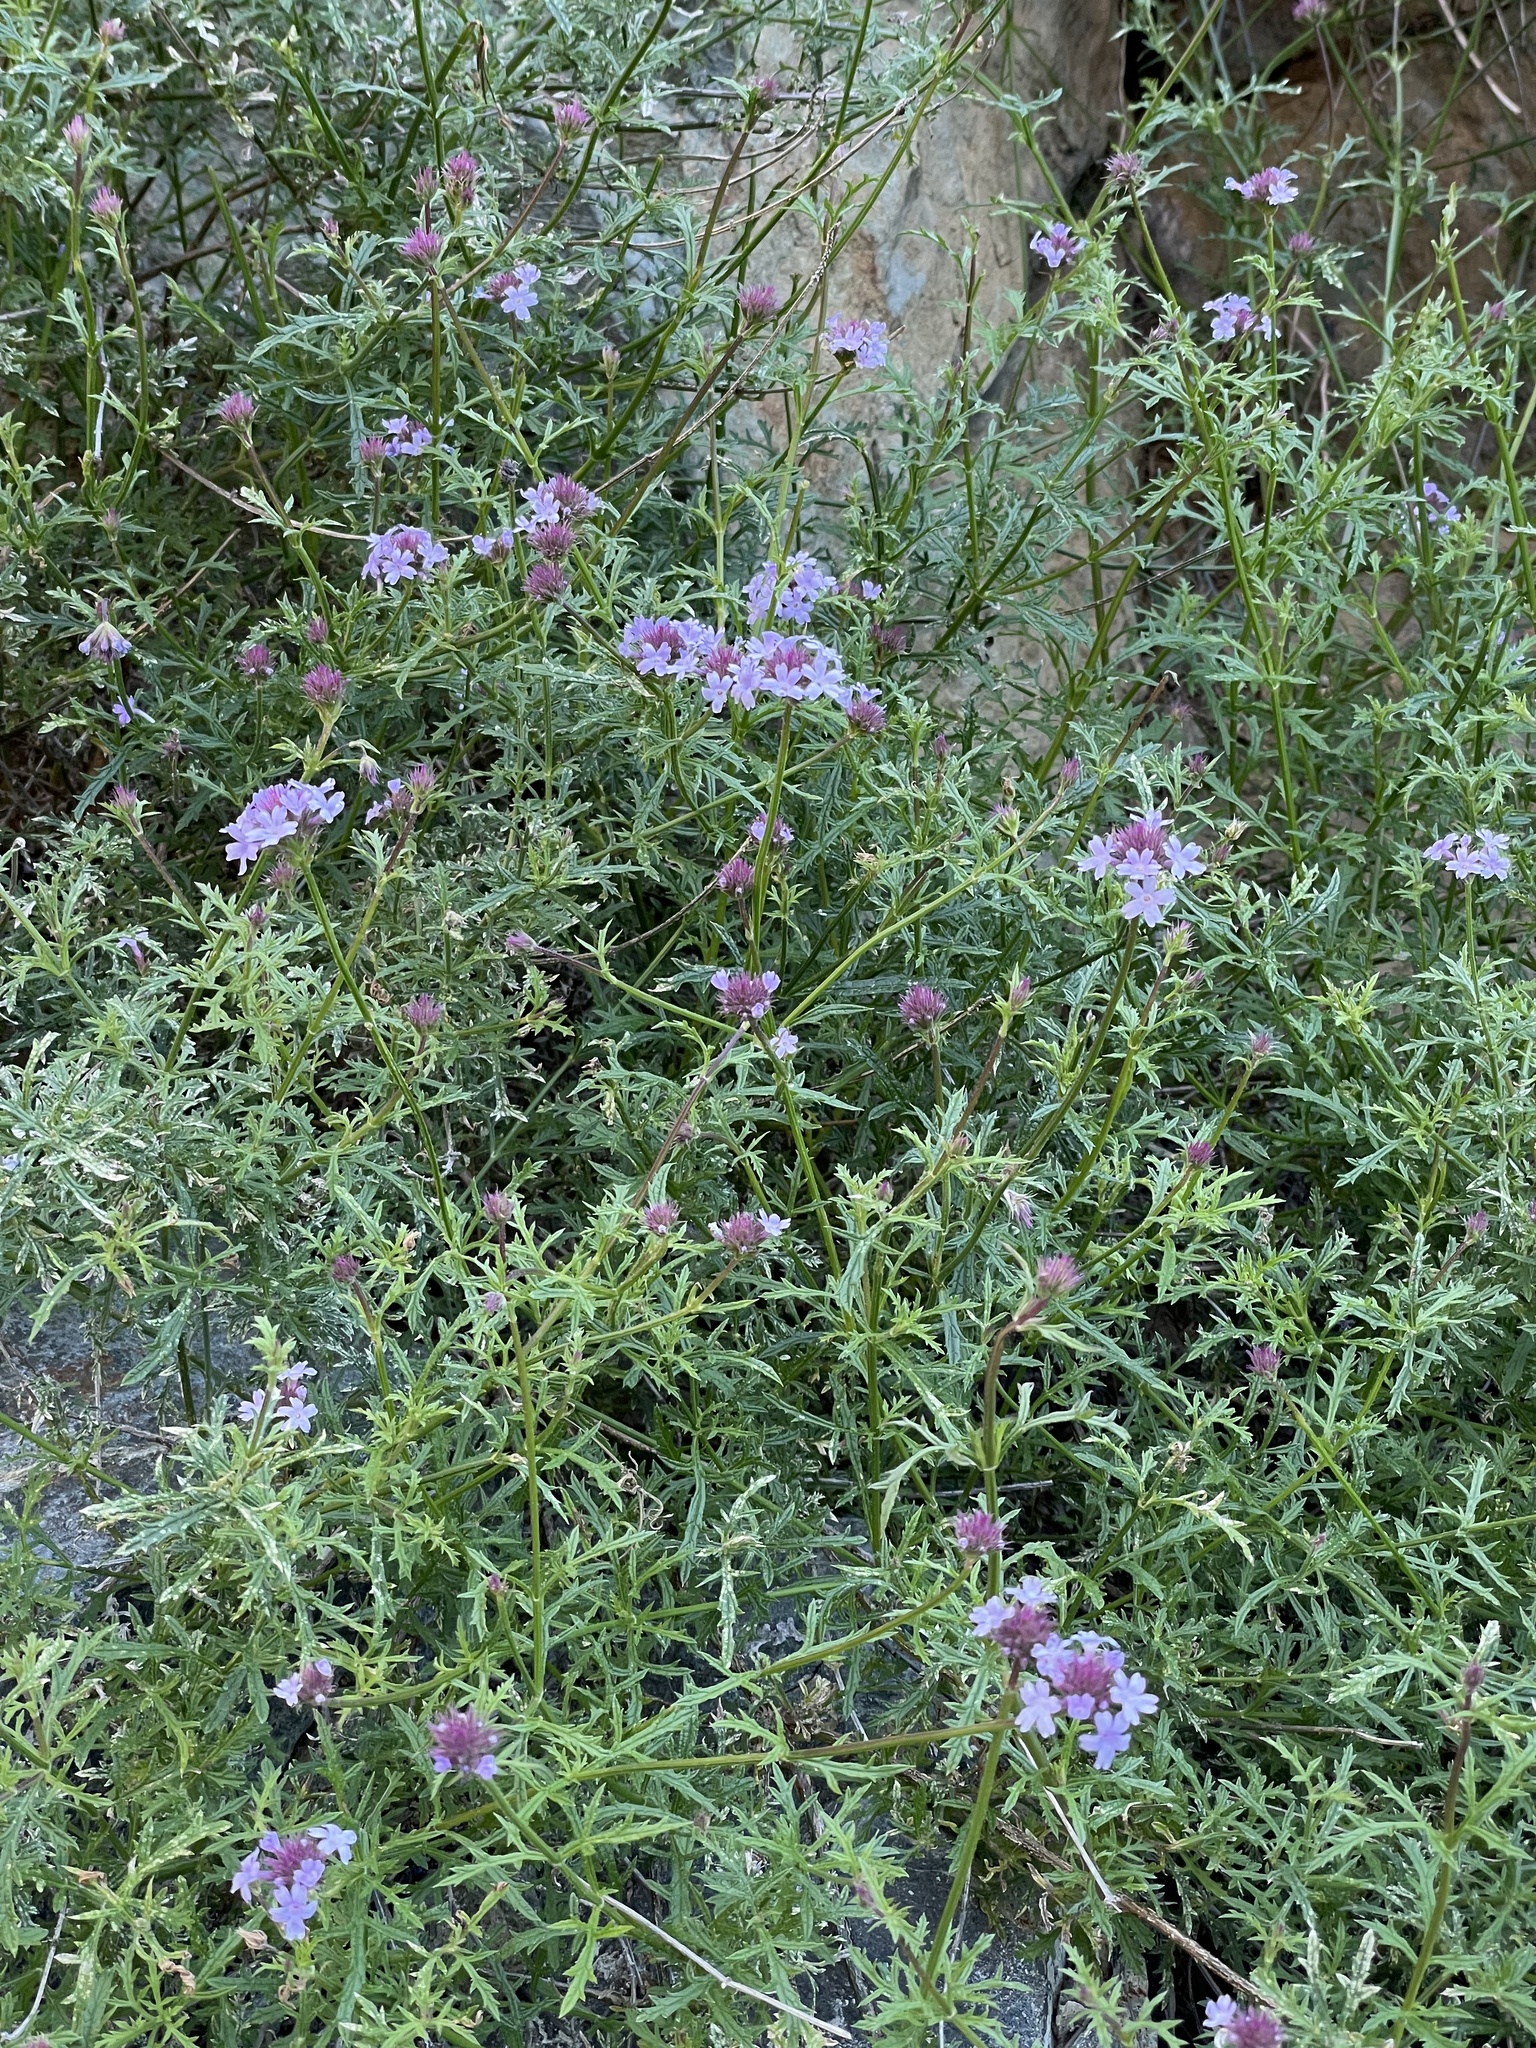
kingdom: Plantae
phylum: Tracheophyta
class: Magnoliopsida
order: Lamiales
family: Verbenaceae
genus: Verbena
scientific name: Verbena lilacina
